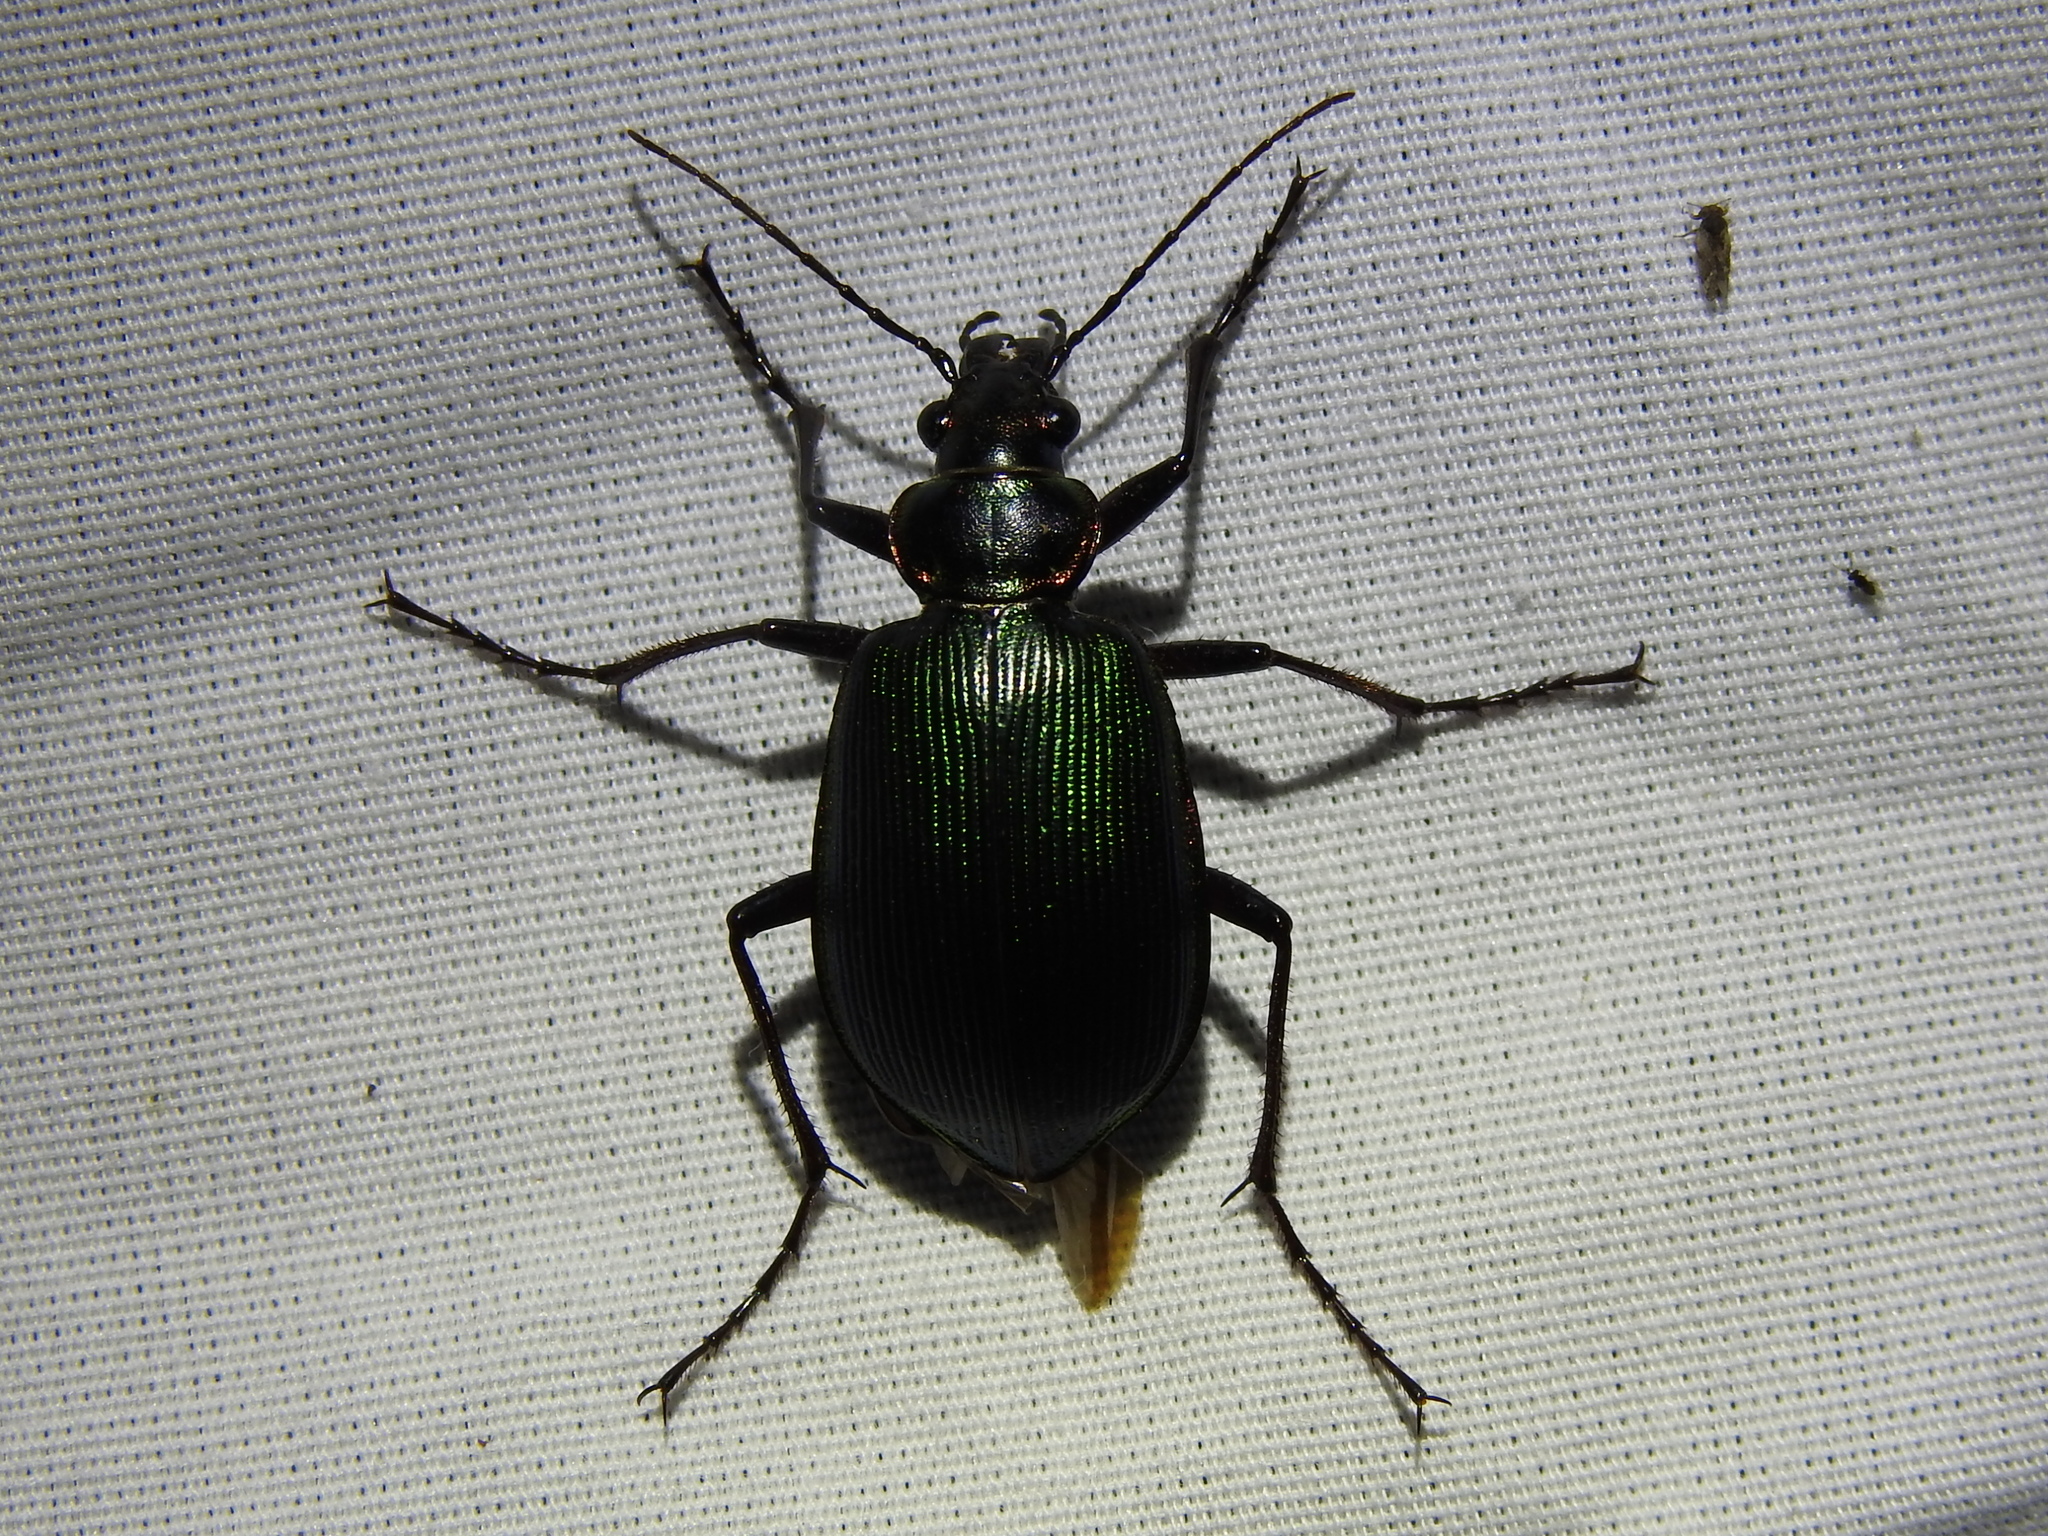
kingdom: Animalia
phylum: Arthropoda
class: Insecta
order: Coleoptera
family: Carabidae
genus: Calosoma
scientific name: Calosoma wilcoxi
